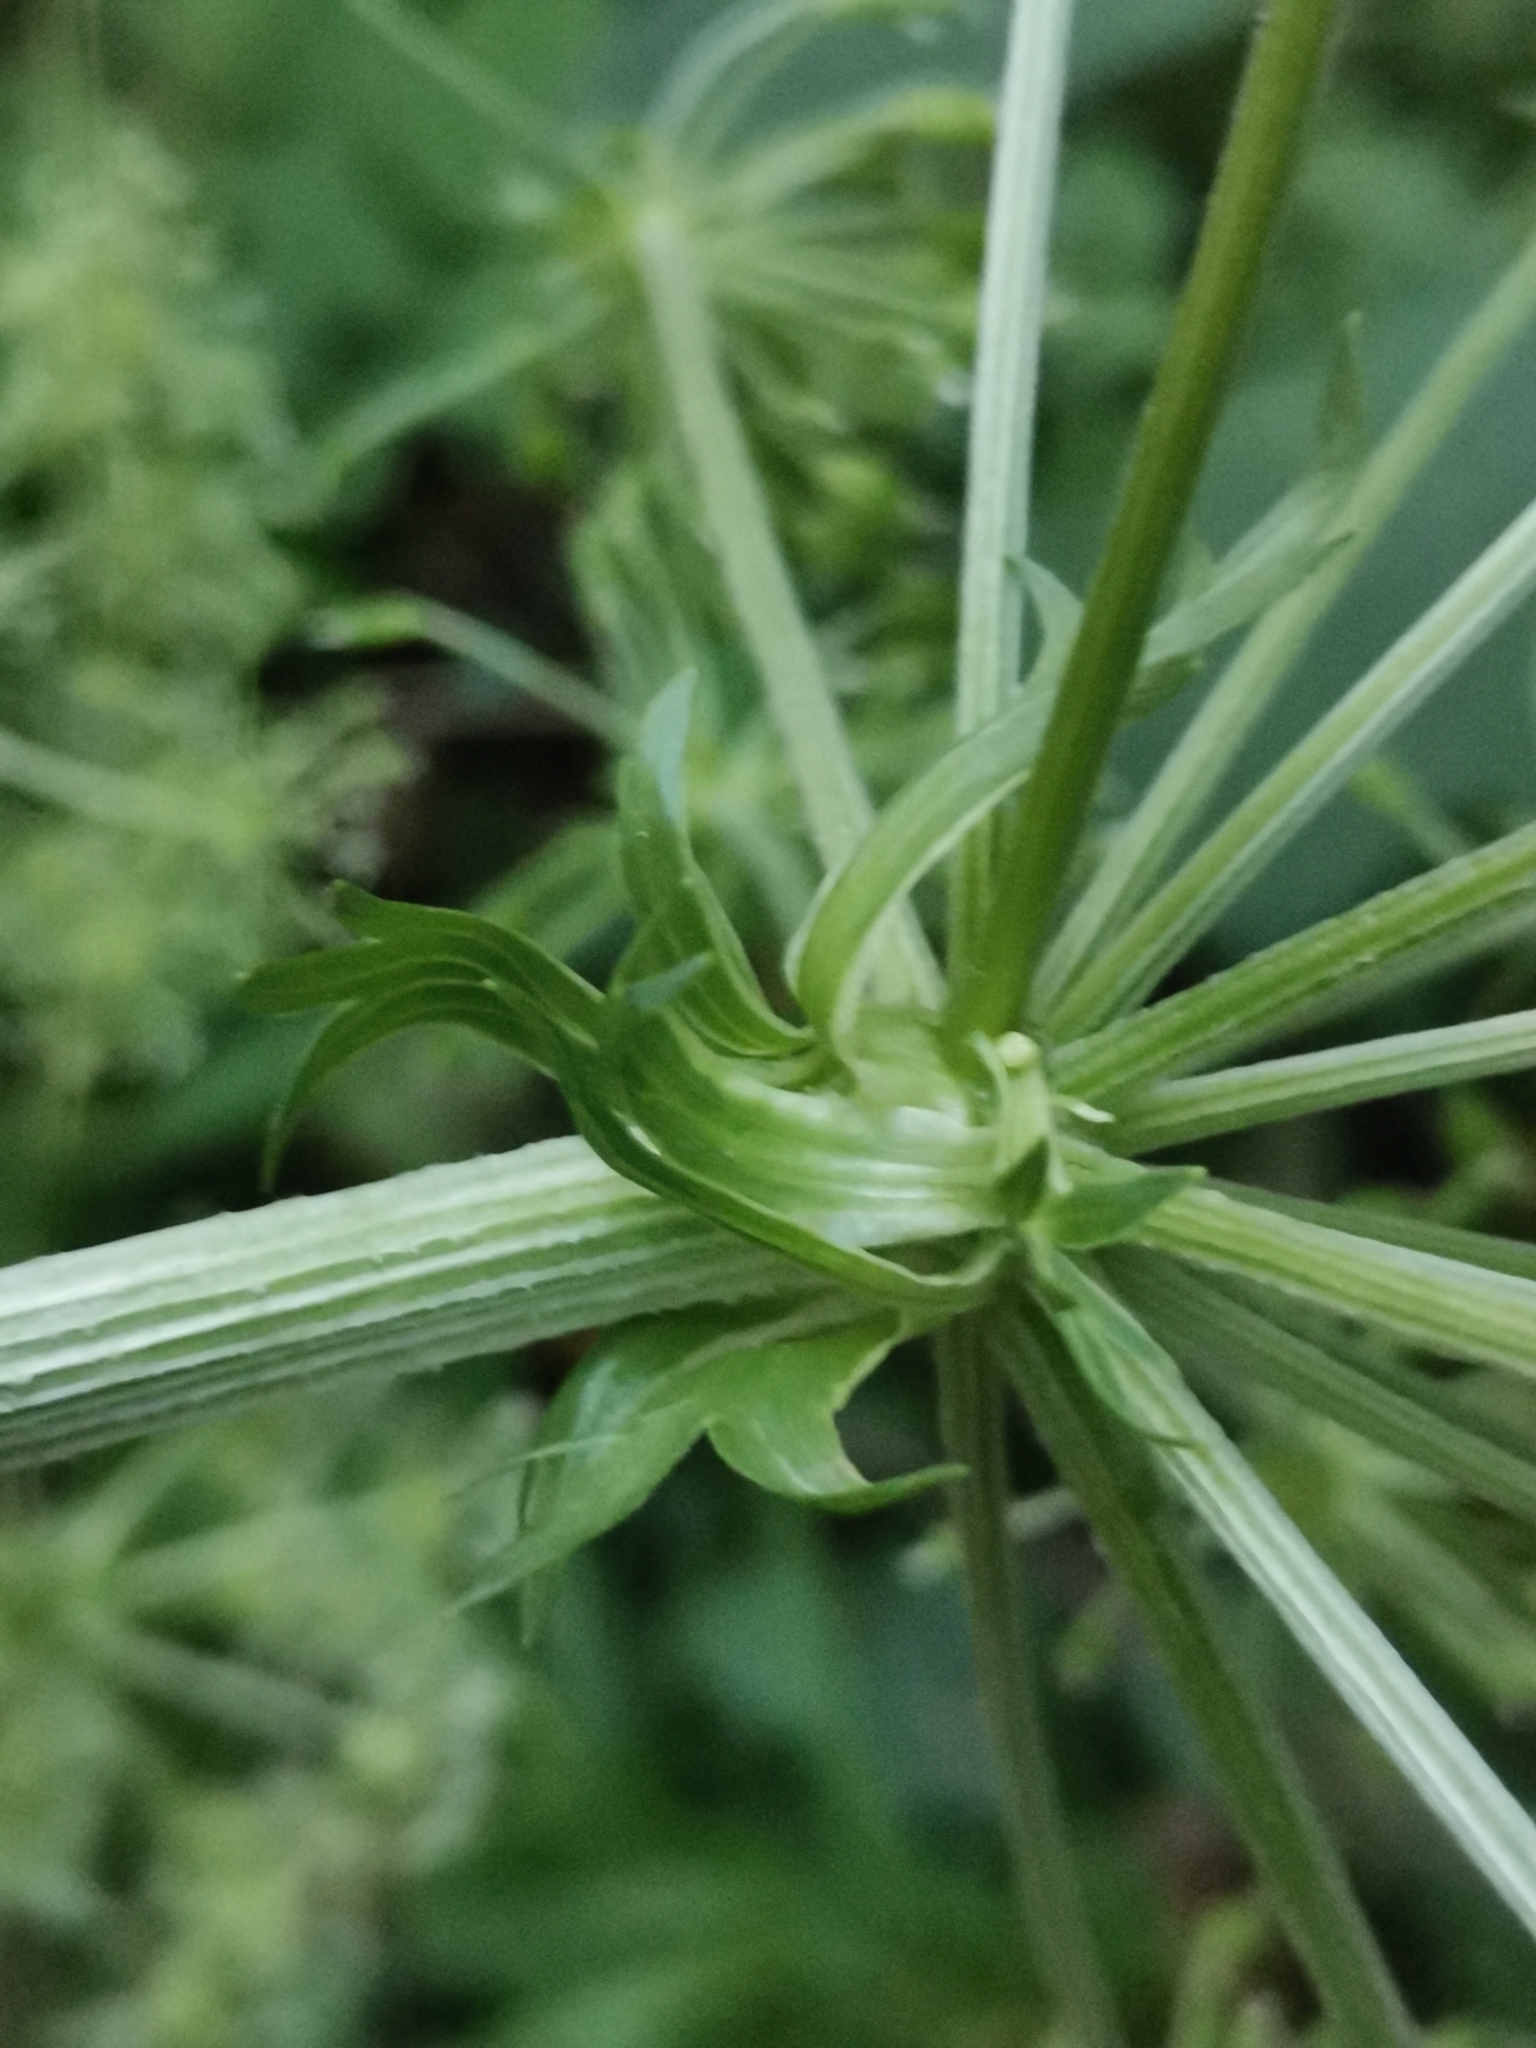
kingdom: Plantae
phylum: Tracheophyta
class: Magnoliopsida
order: Apiales
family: Apiaceae
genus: Pleurospermum
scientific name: Pleurospermum austriacum
